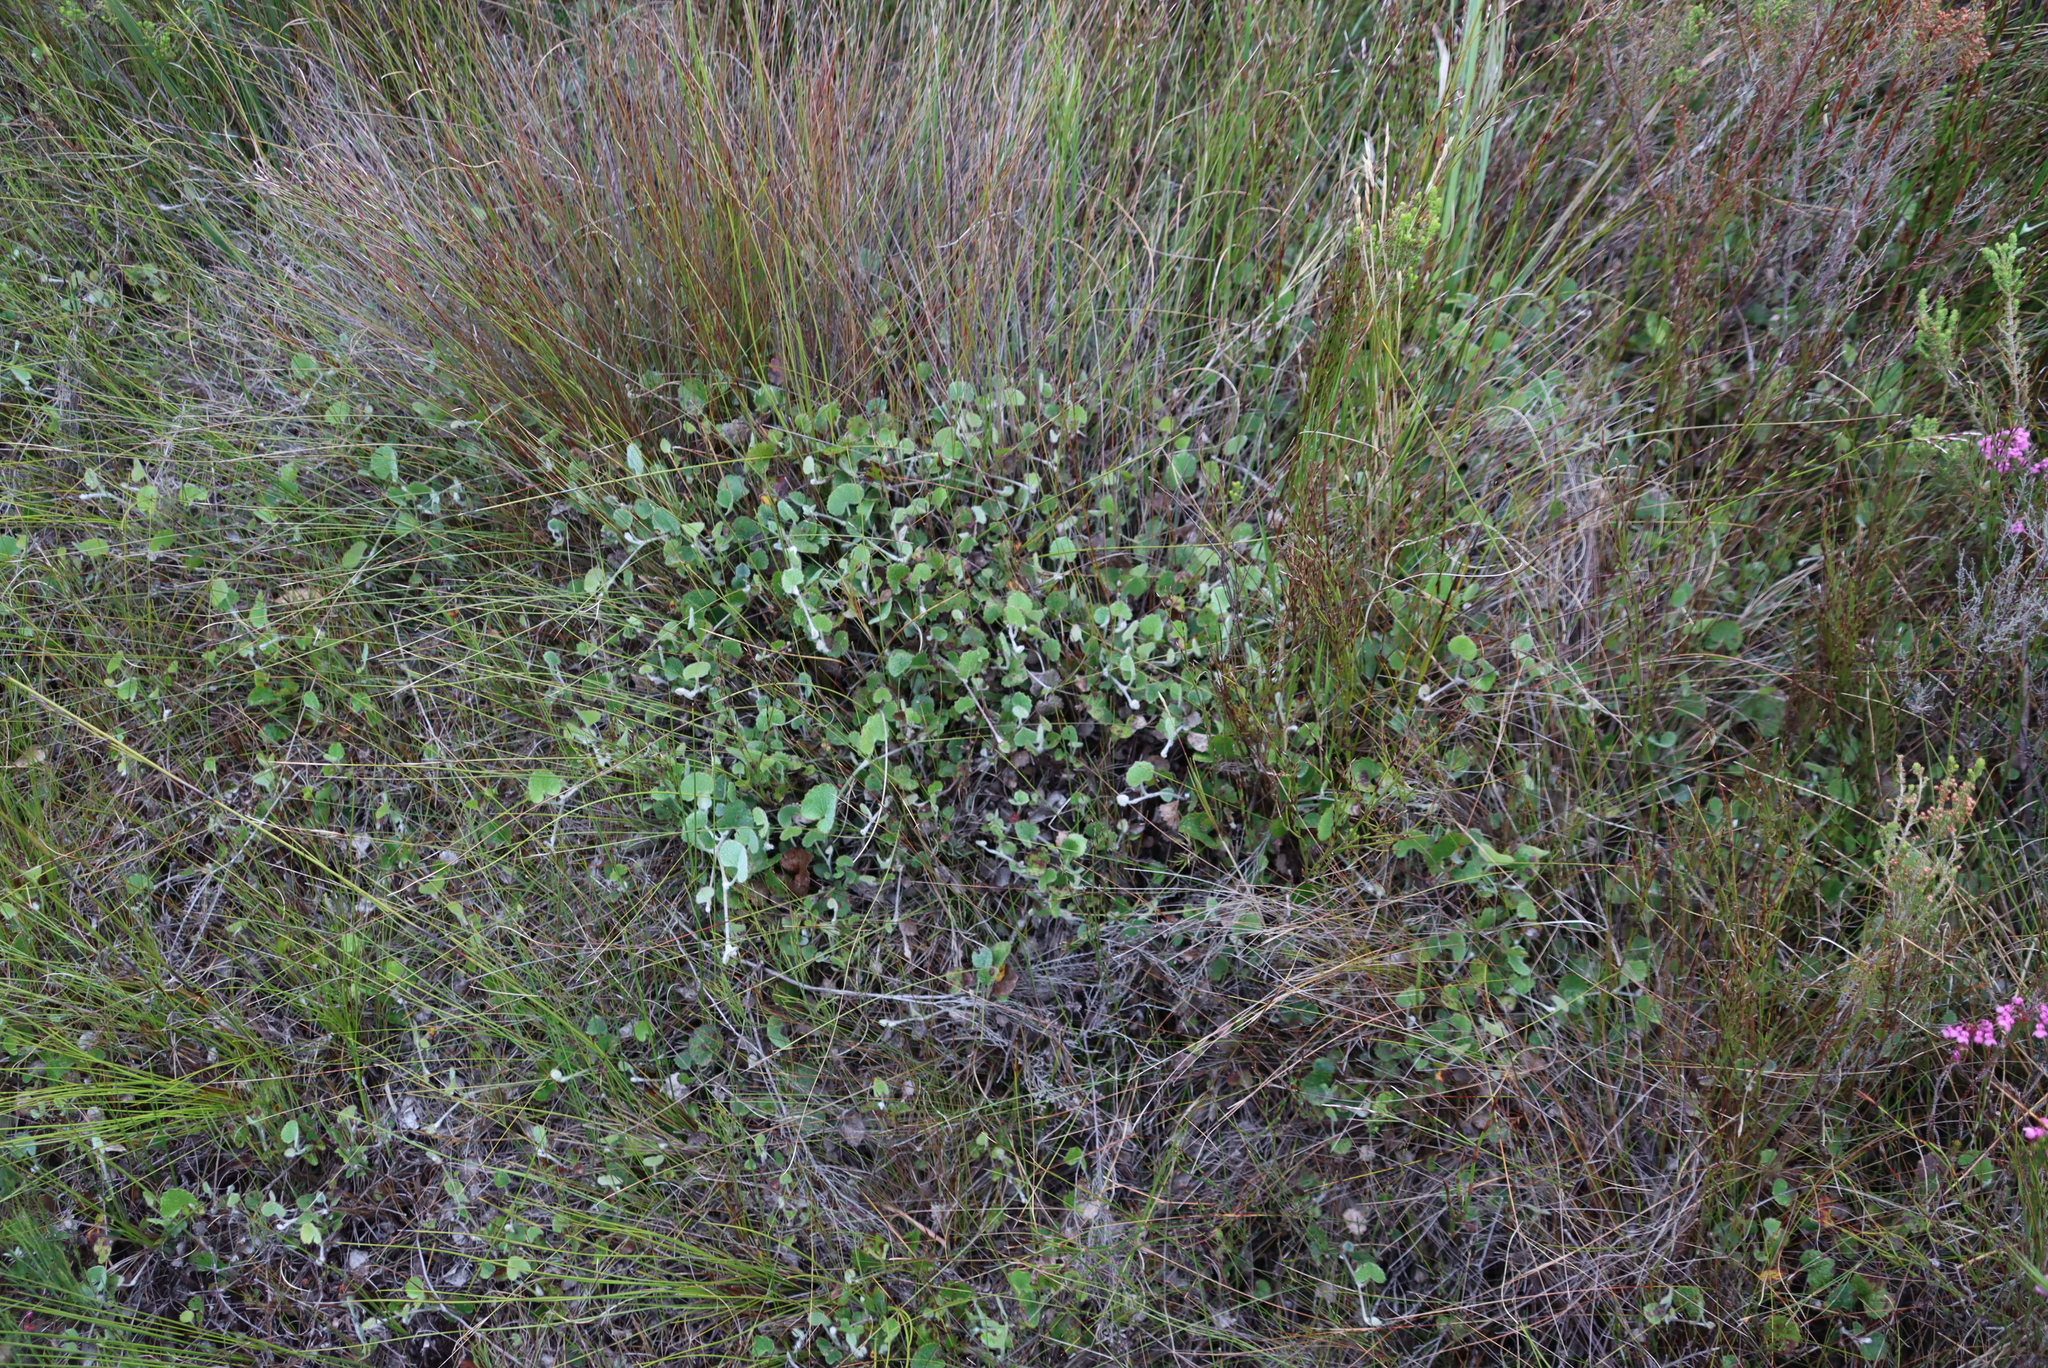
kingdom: Plantae
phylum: Tracheophyta
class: Magnoliopsida
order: Apiales
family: Apiaceae
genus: Centella
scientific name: Centella eriantha
